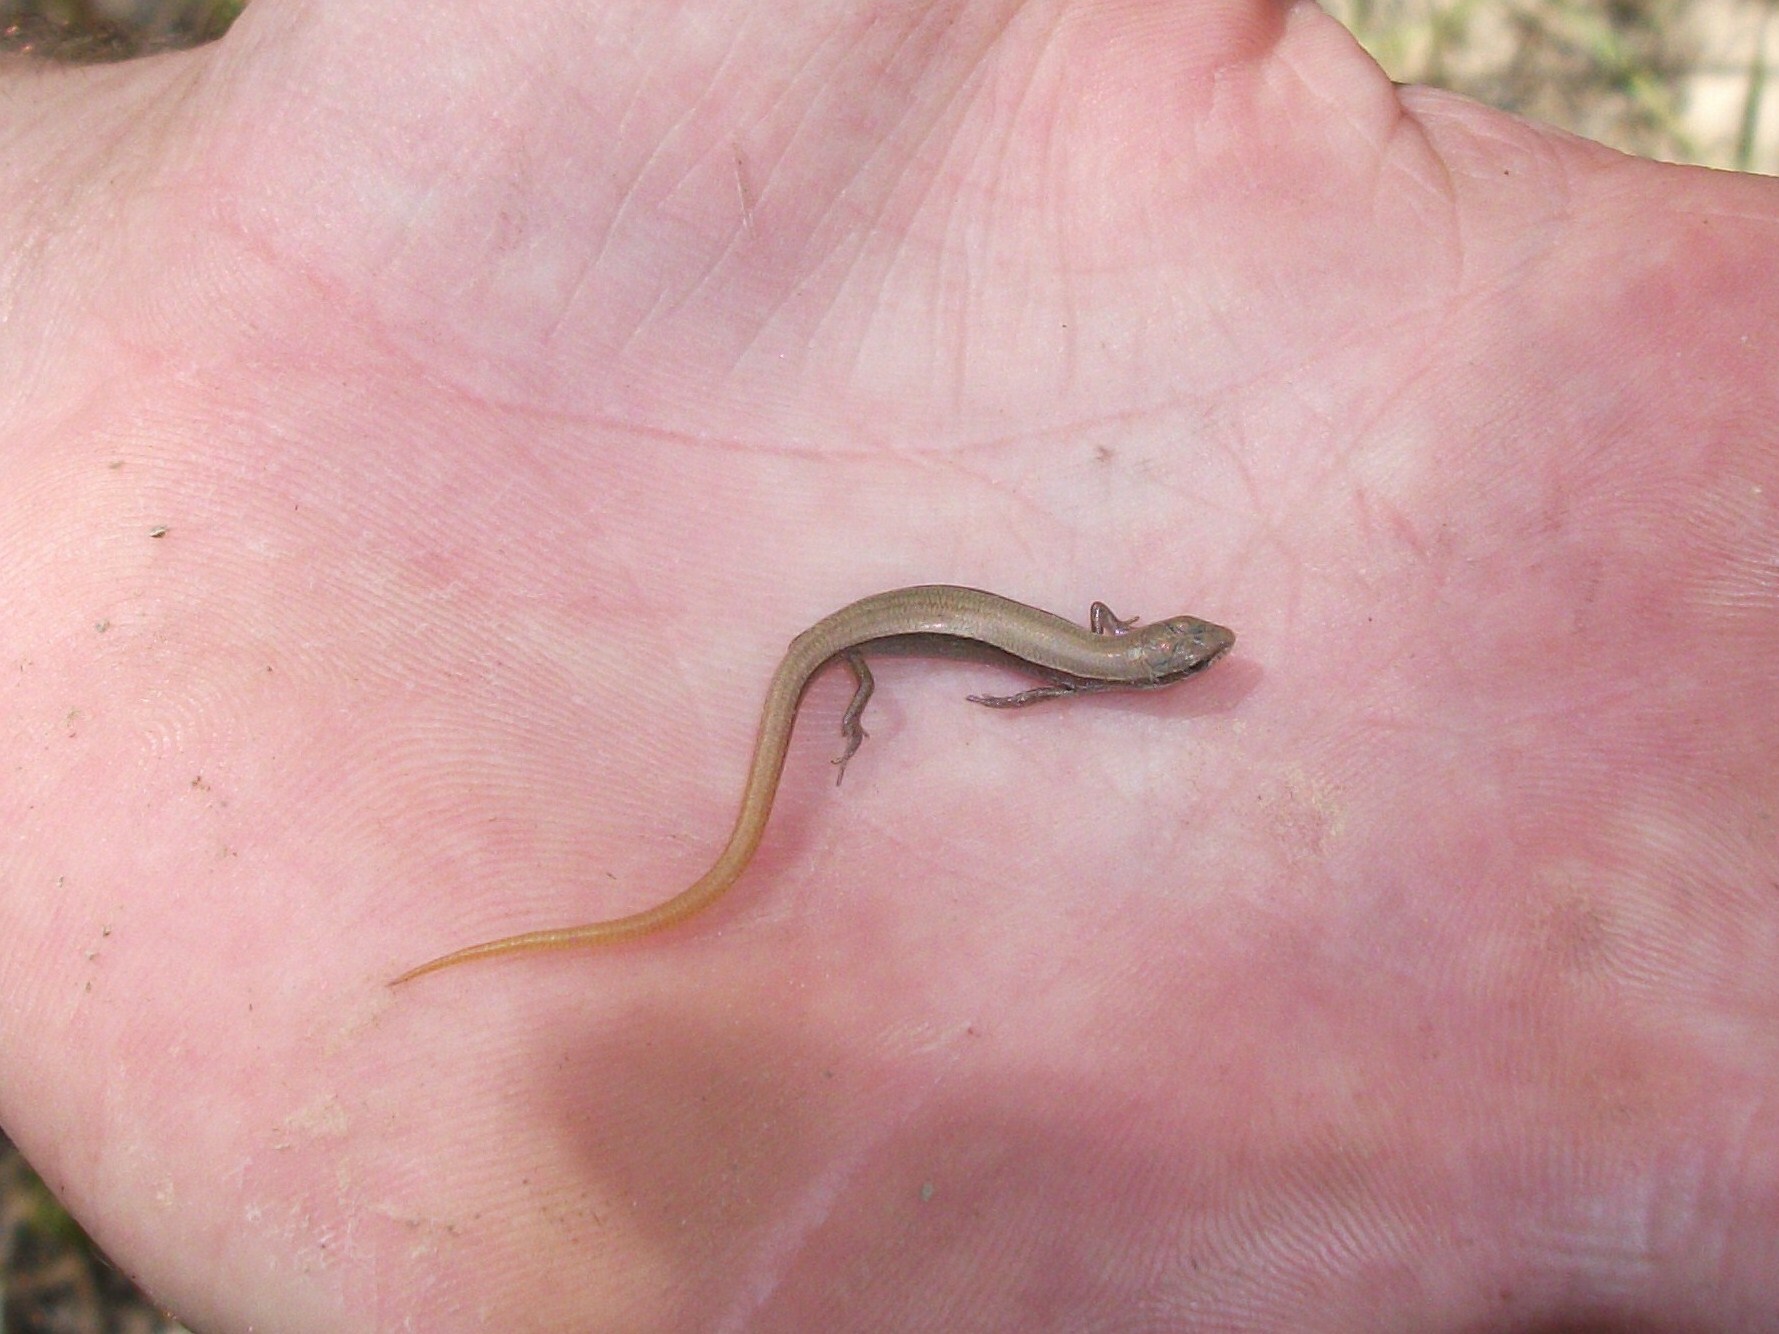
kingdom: Animalia
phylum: Chordata
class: Squamata
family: Scincidae
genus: Ablepharus
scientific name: Ablepharus deserti
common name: Desert lidless skink
